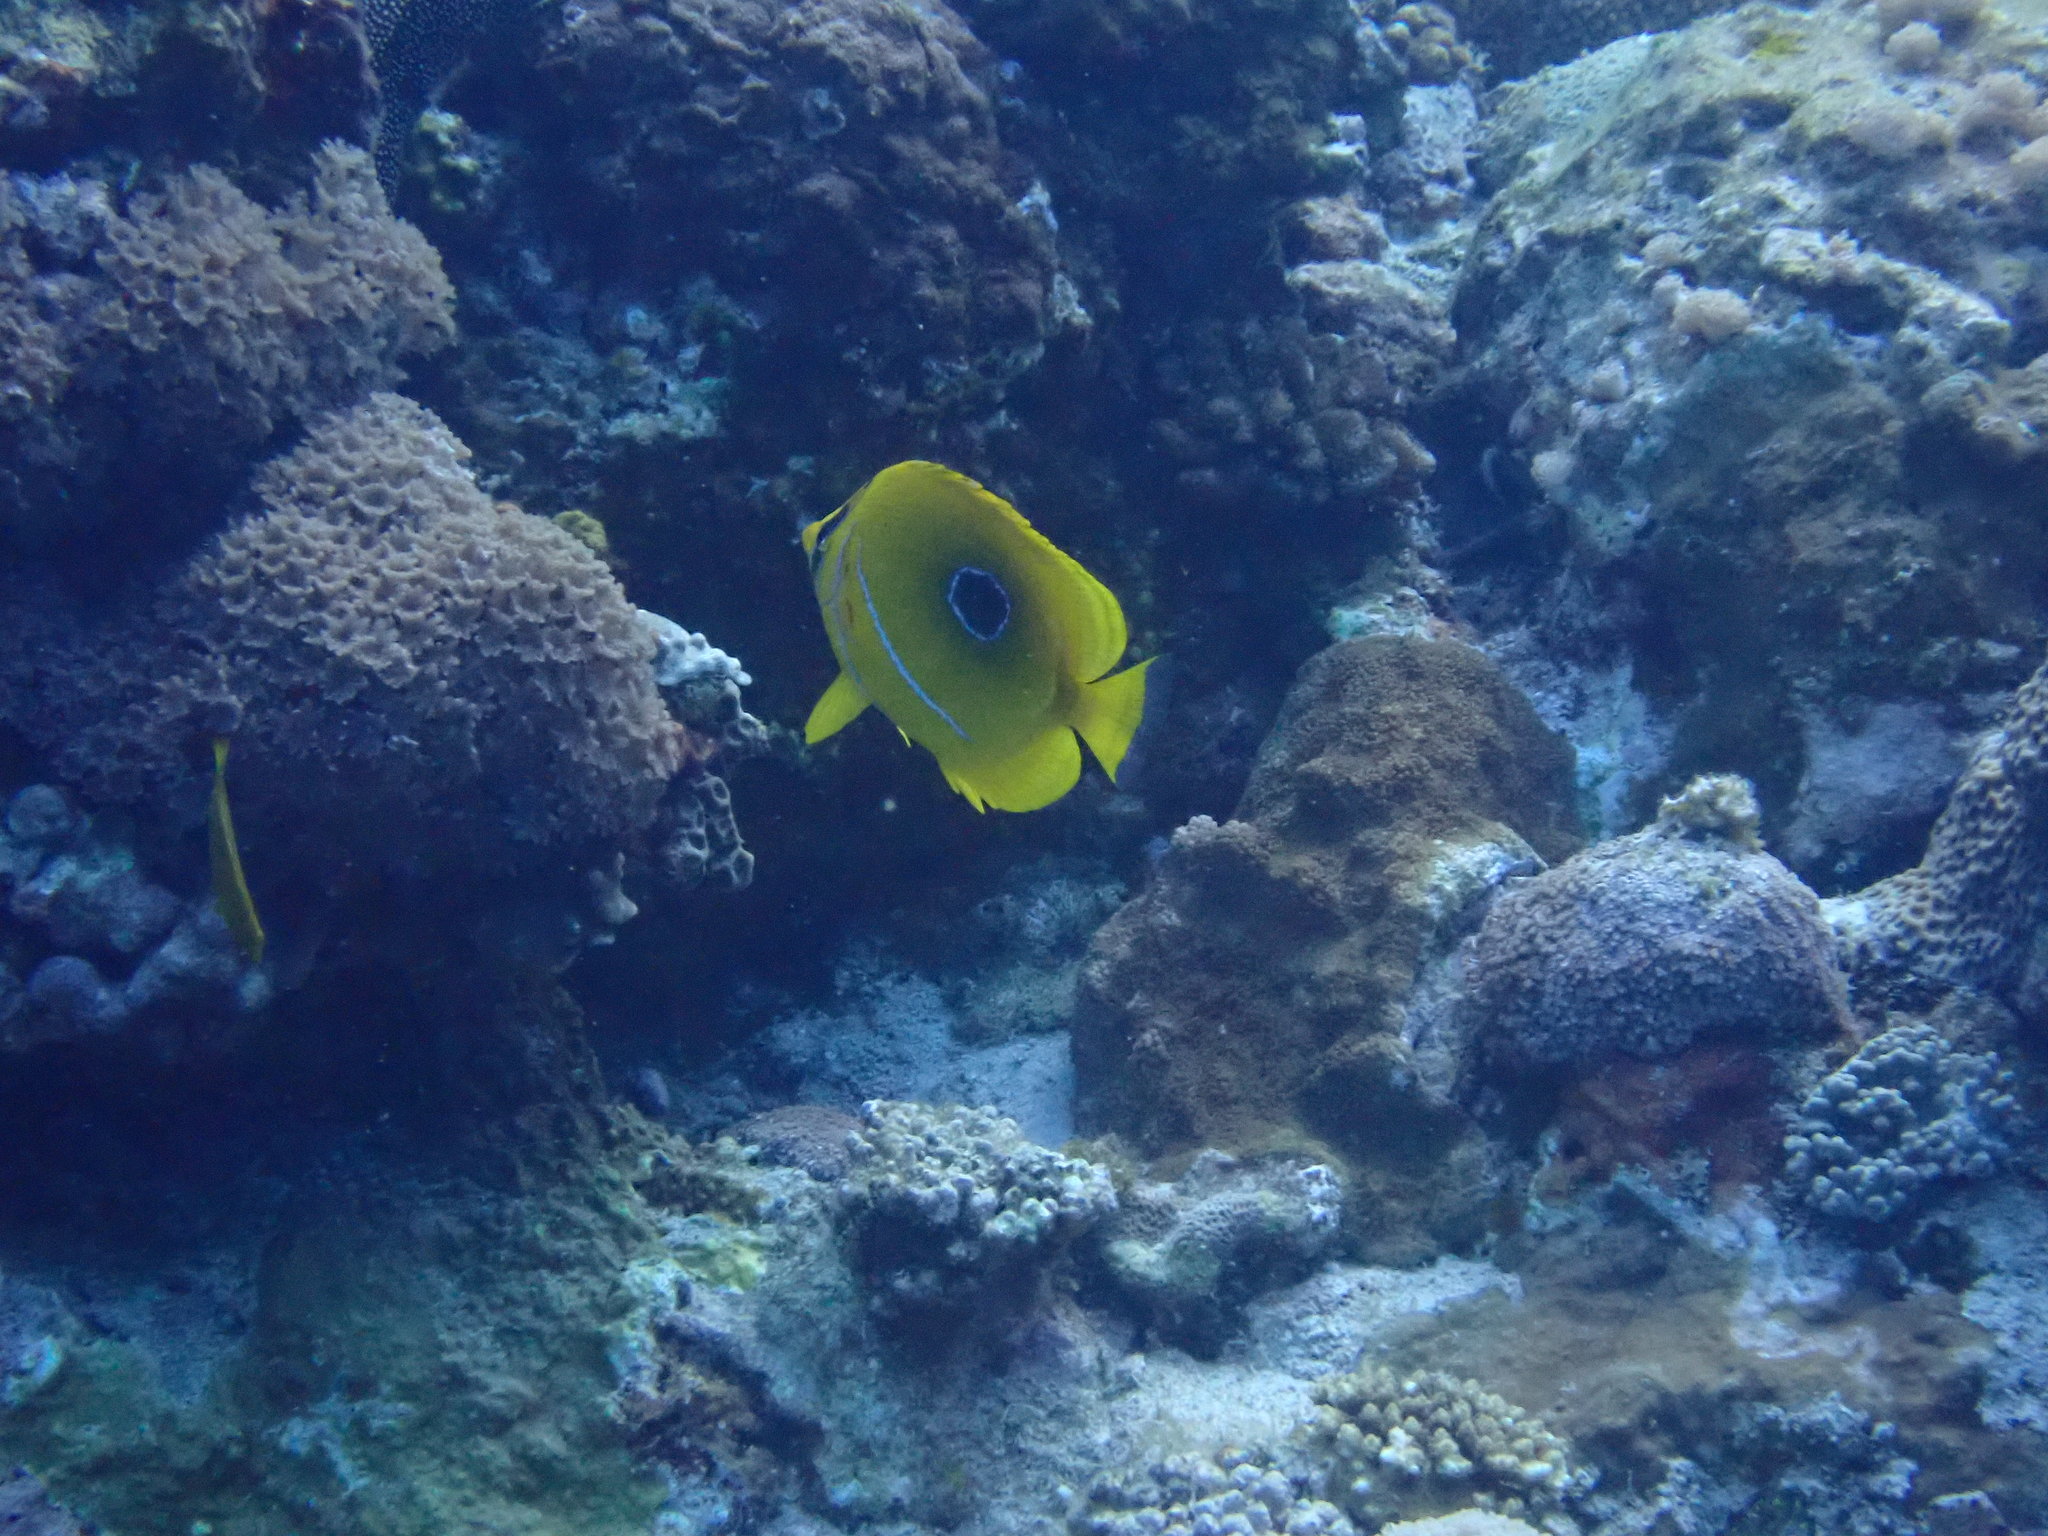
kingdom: Animalia
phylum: Chordata
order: Perciformes
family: Chaetodontidae
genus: Chaetodon
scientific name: Chaetodon bennetti
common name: Bennett's butterflyfish
